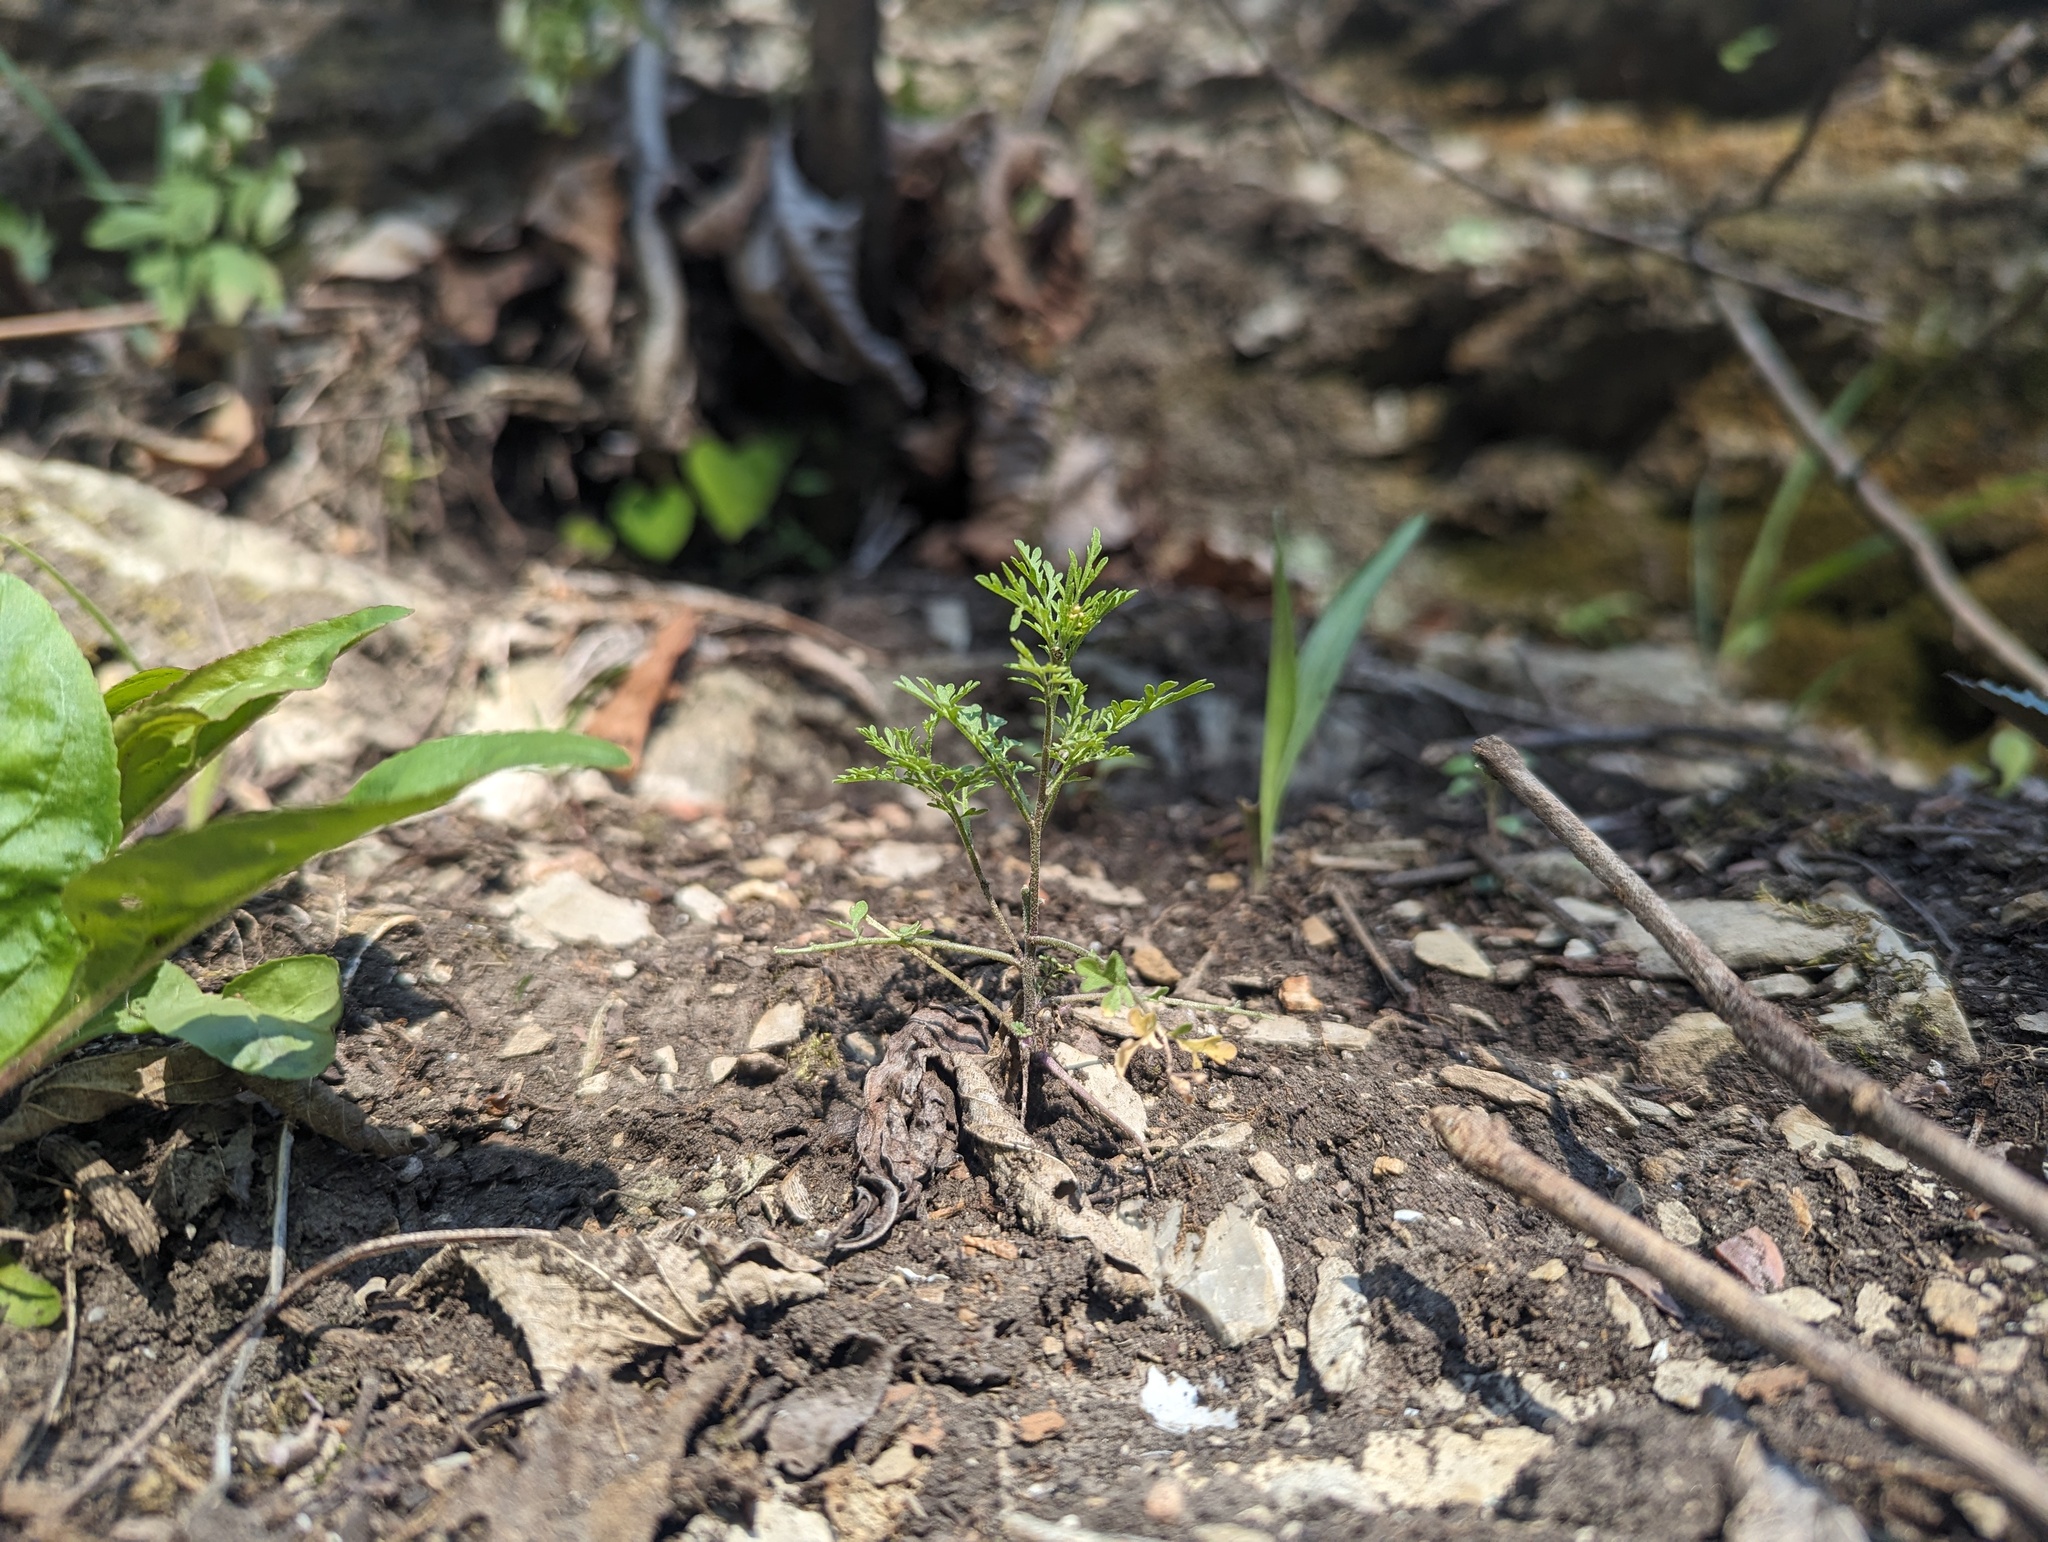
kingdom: Plantae
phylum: Tracheophyta
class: Magnoliopsida
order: Brassicales
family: Brassicaceae
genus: Descurainia
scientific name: Descurainia pinnata
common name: Western tansy mustard
